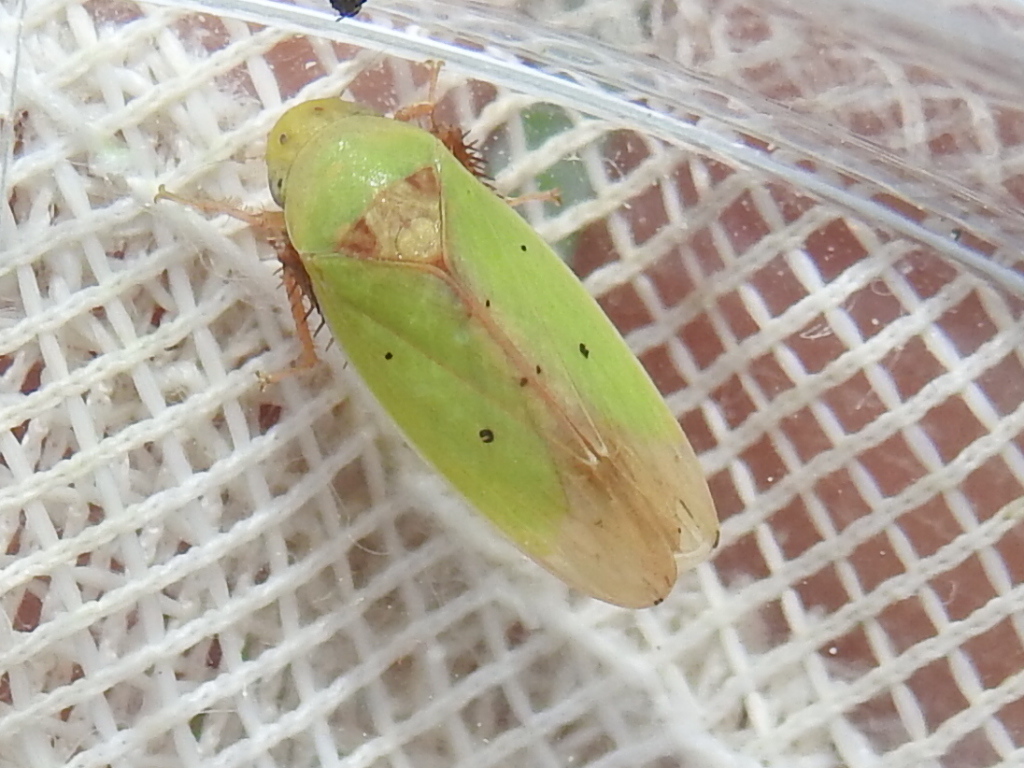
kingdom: Animalia
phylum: Arthropoda
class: Insecta
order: Hemiptera
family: Cicadellidae
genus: Ponana
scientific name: Ponana
